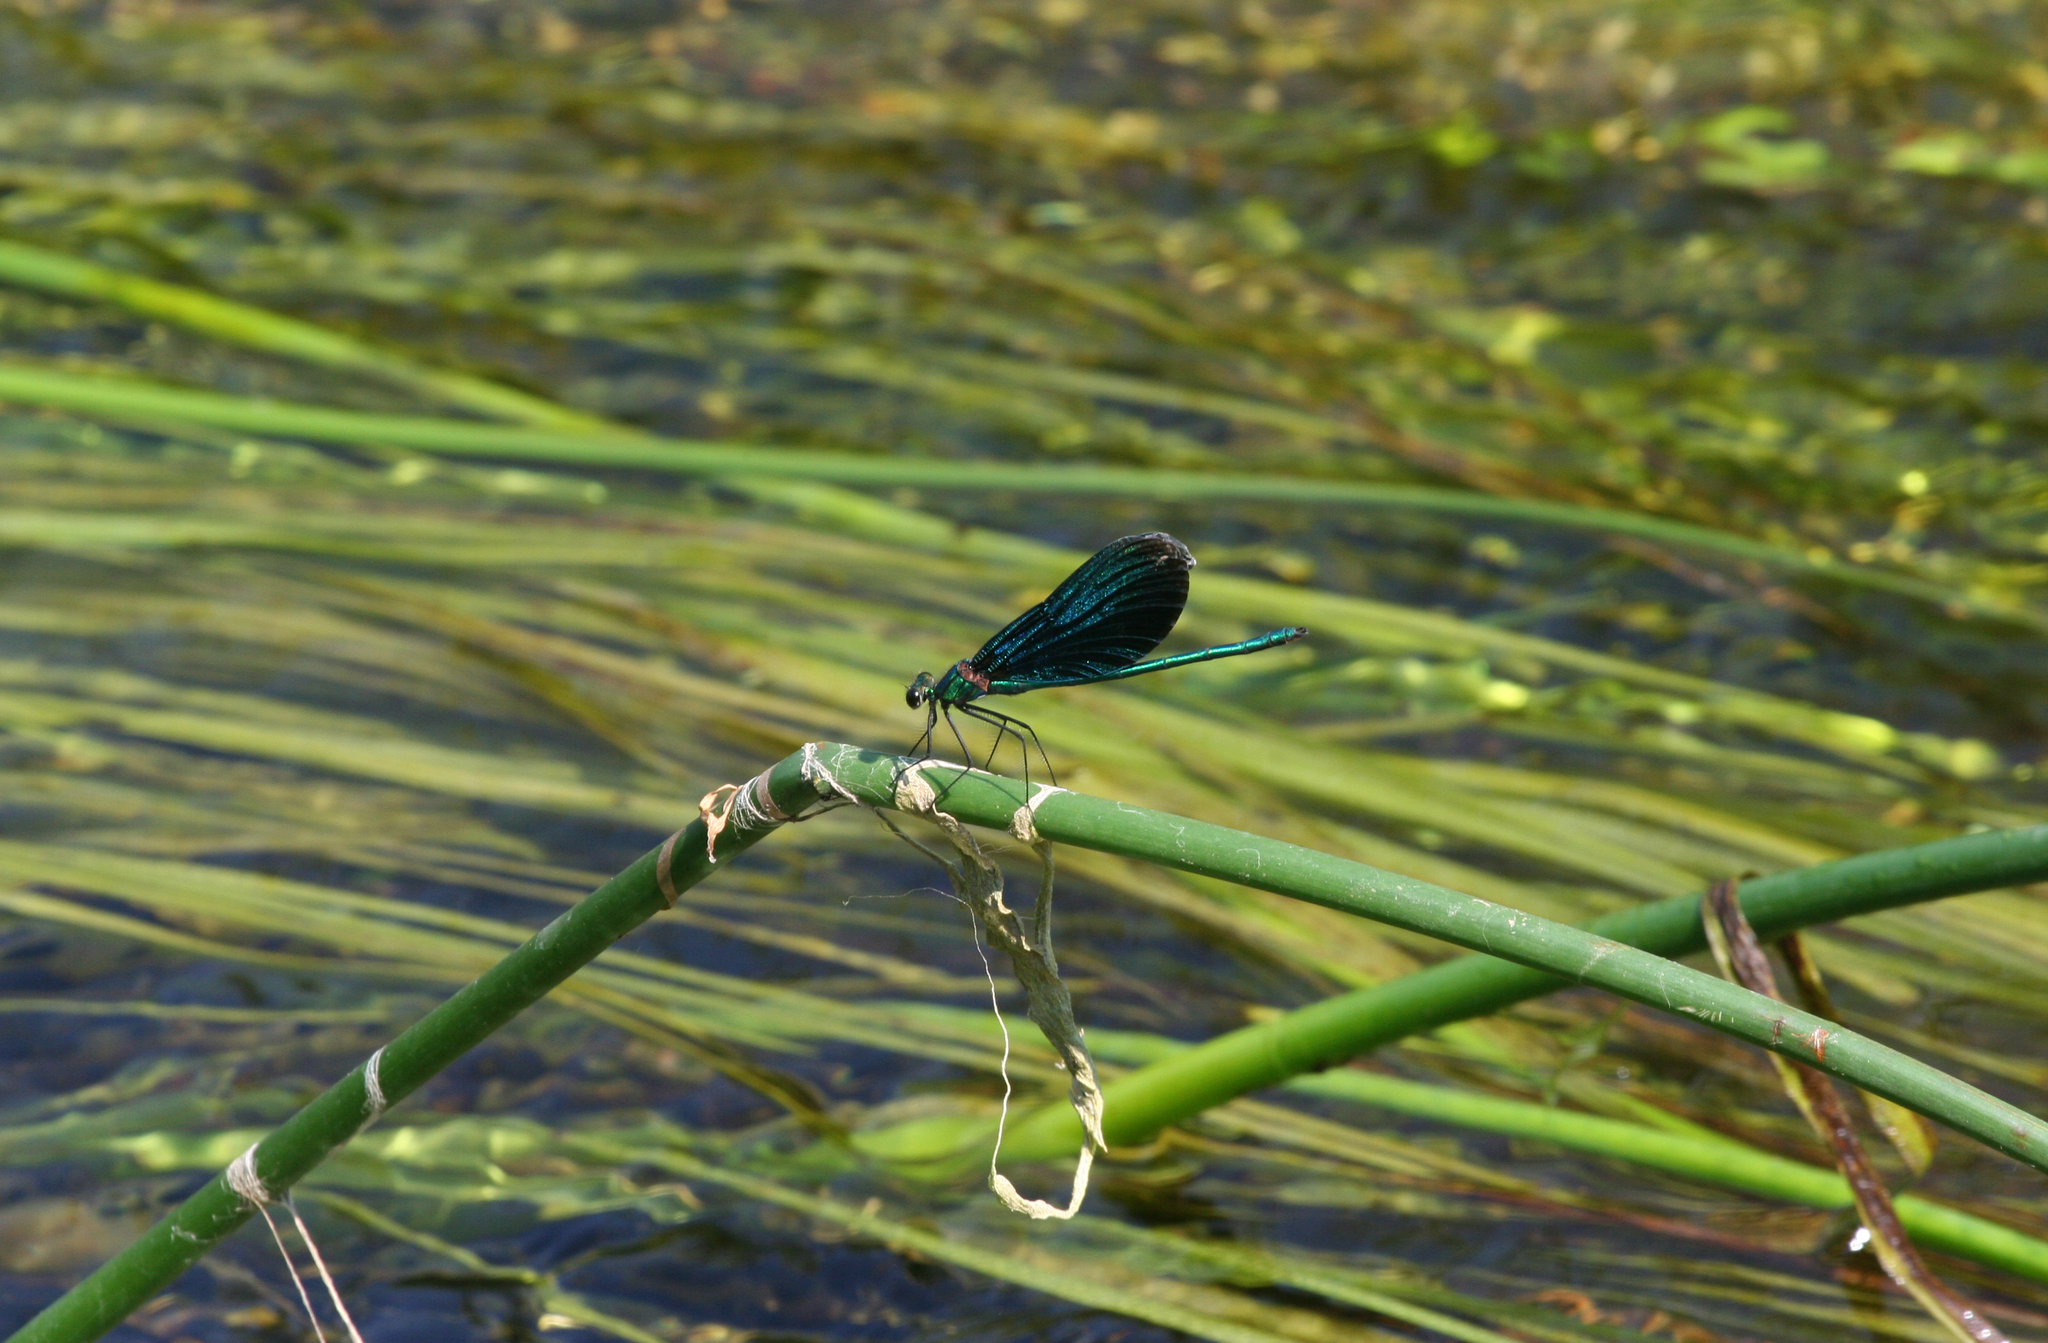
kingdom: Animalia
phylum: Arthropoda
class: Insecta
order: Odonata
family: Calopterygidae
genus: Calopteryx
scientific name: Calopteryx virgo
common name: Beautiful demoiselle
